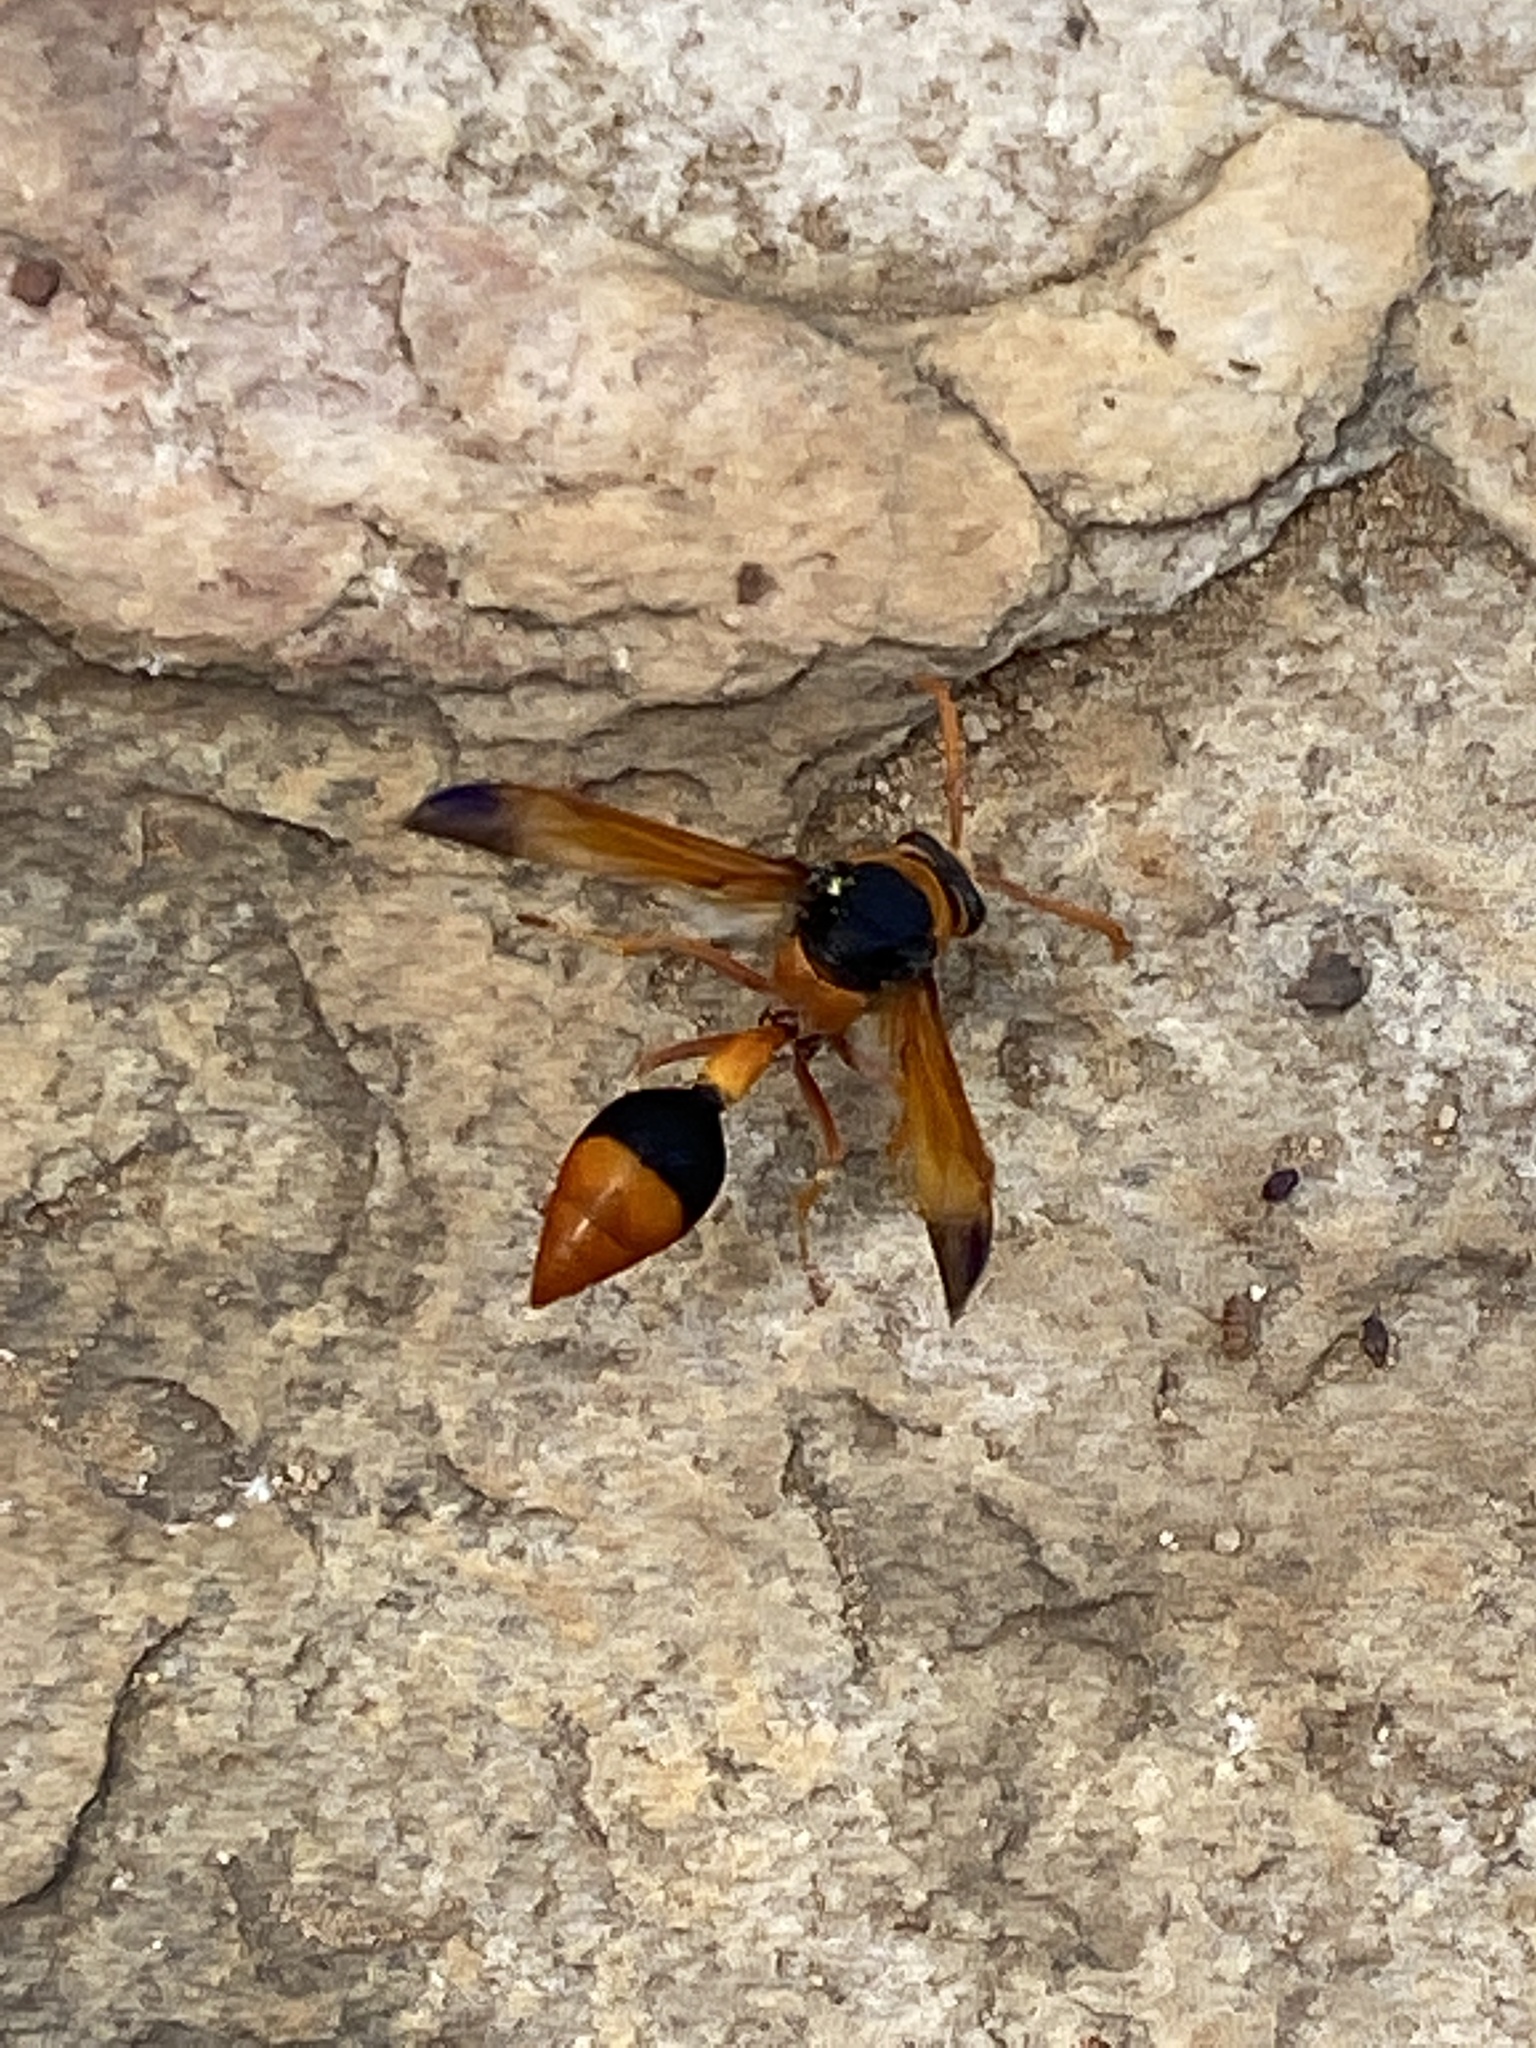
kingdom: Animalia
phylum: Arthropoda
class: Insecta
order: Hymenoptera
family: Eumenidae
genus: Delta
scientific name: Delta latreillei
